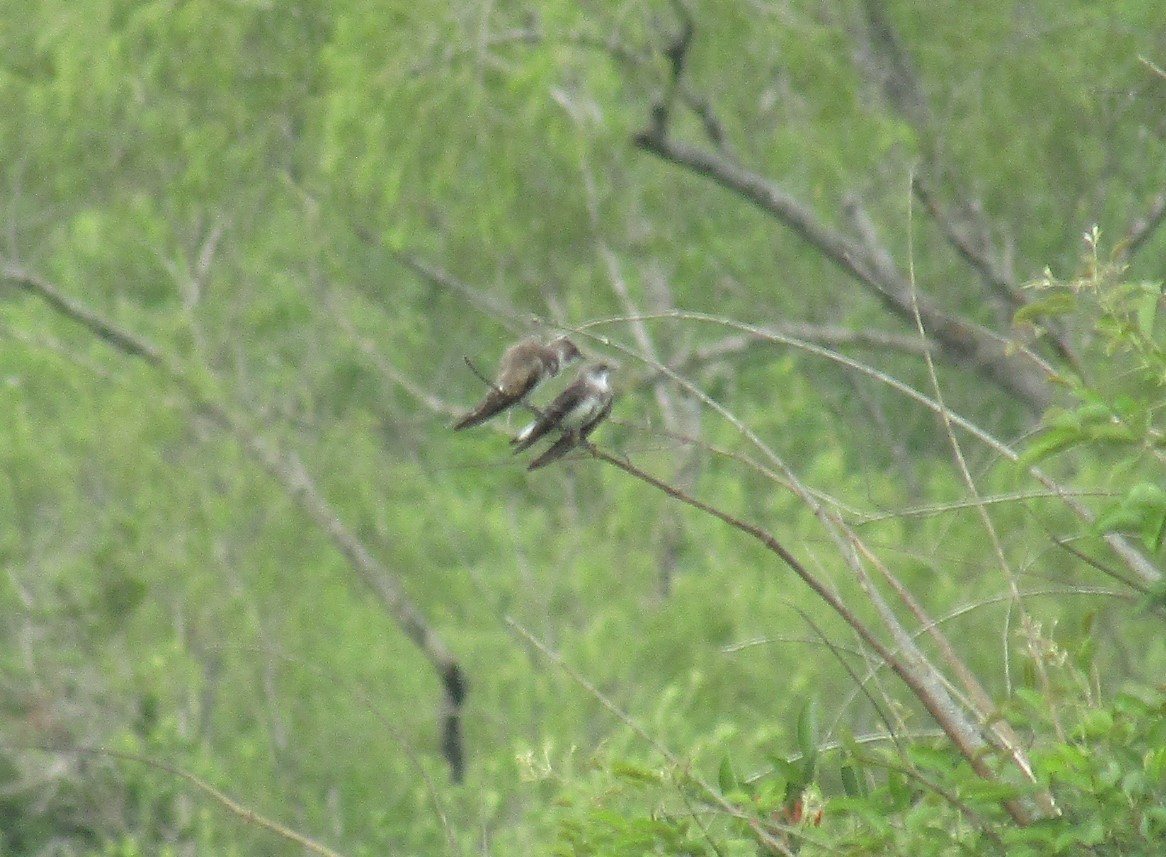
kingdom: Animalia
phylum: Chordata
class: Aves
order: Passeriformes
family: Hirundinidae
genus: Progne
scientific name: Progne tapera
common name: Brown-chested martin
